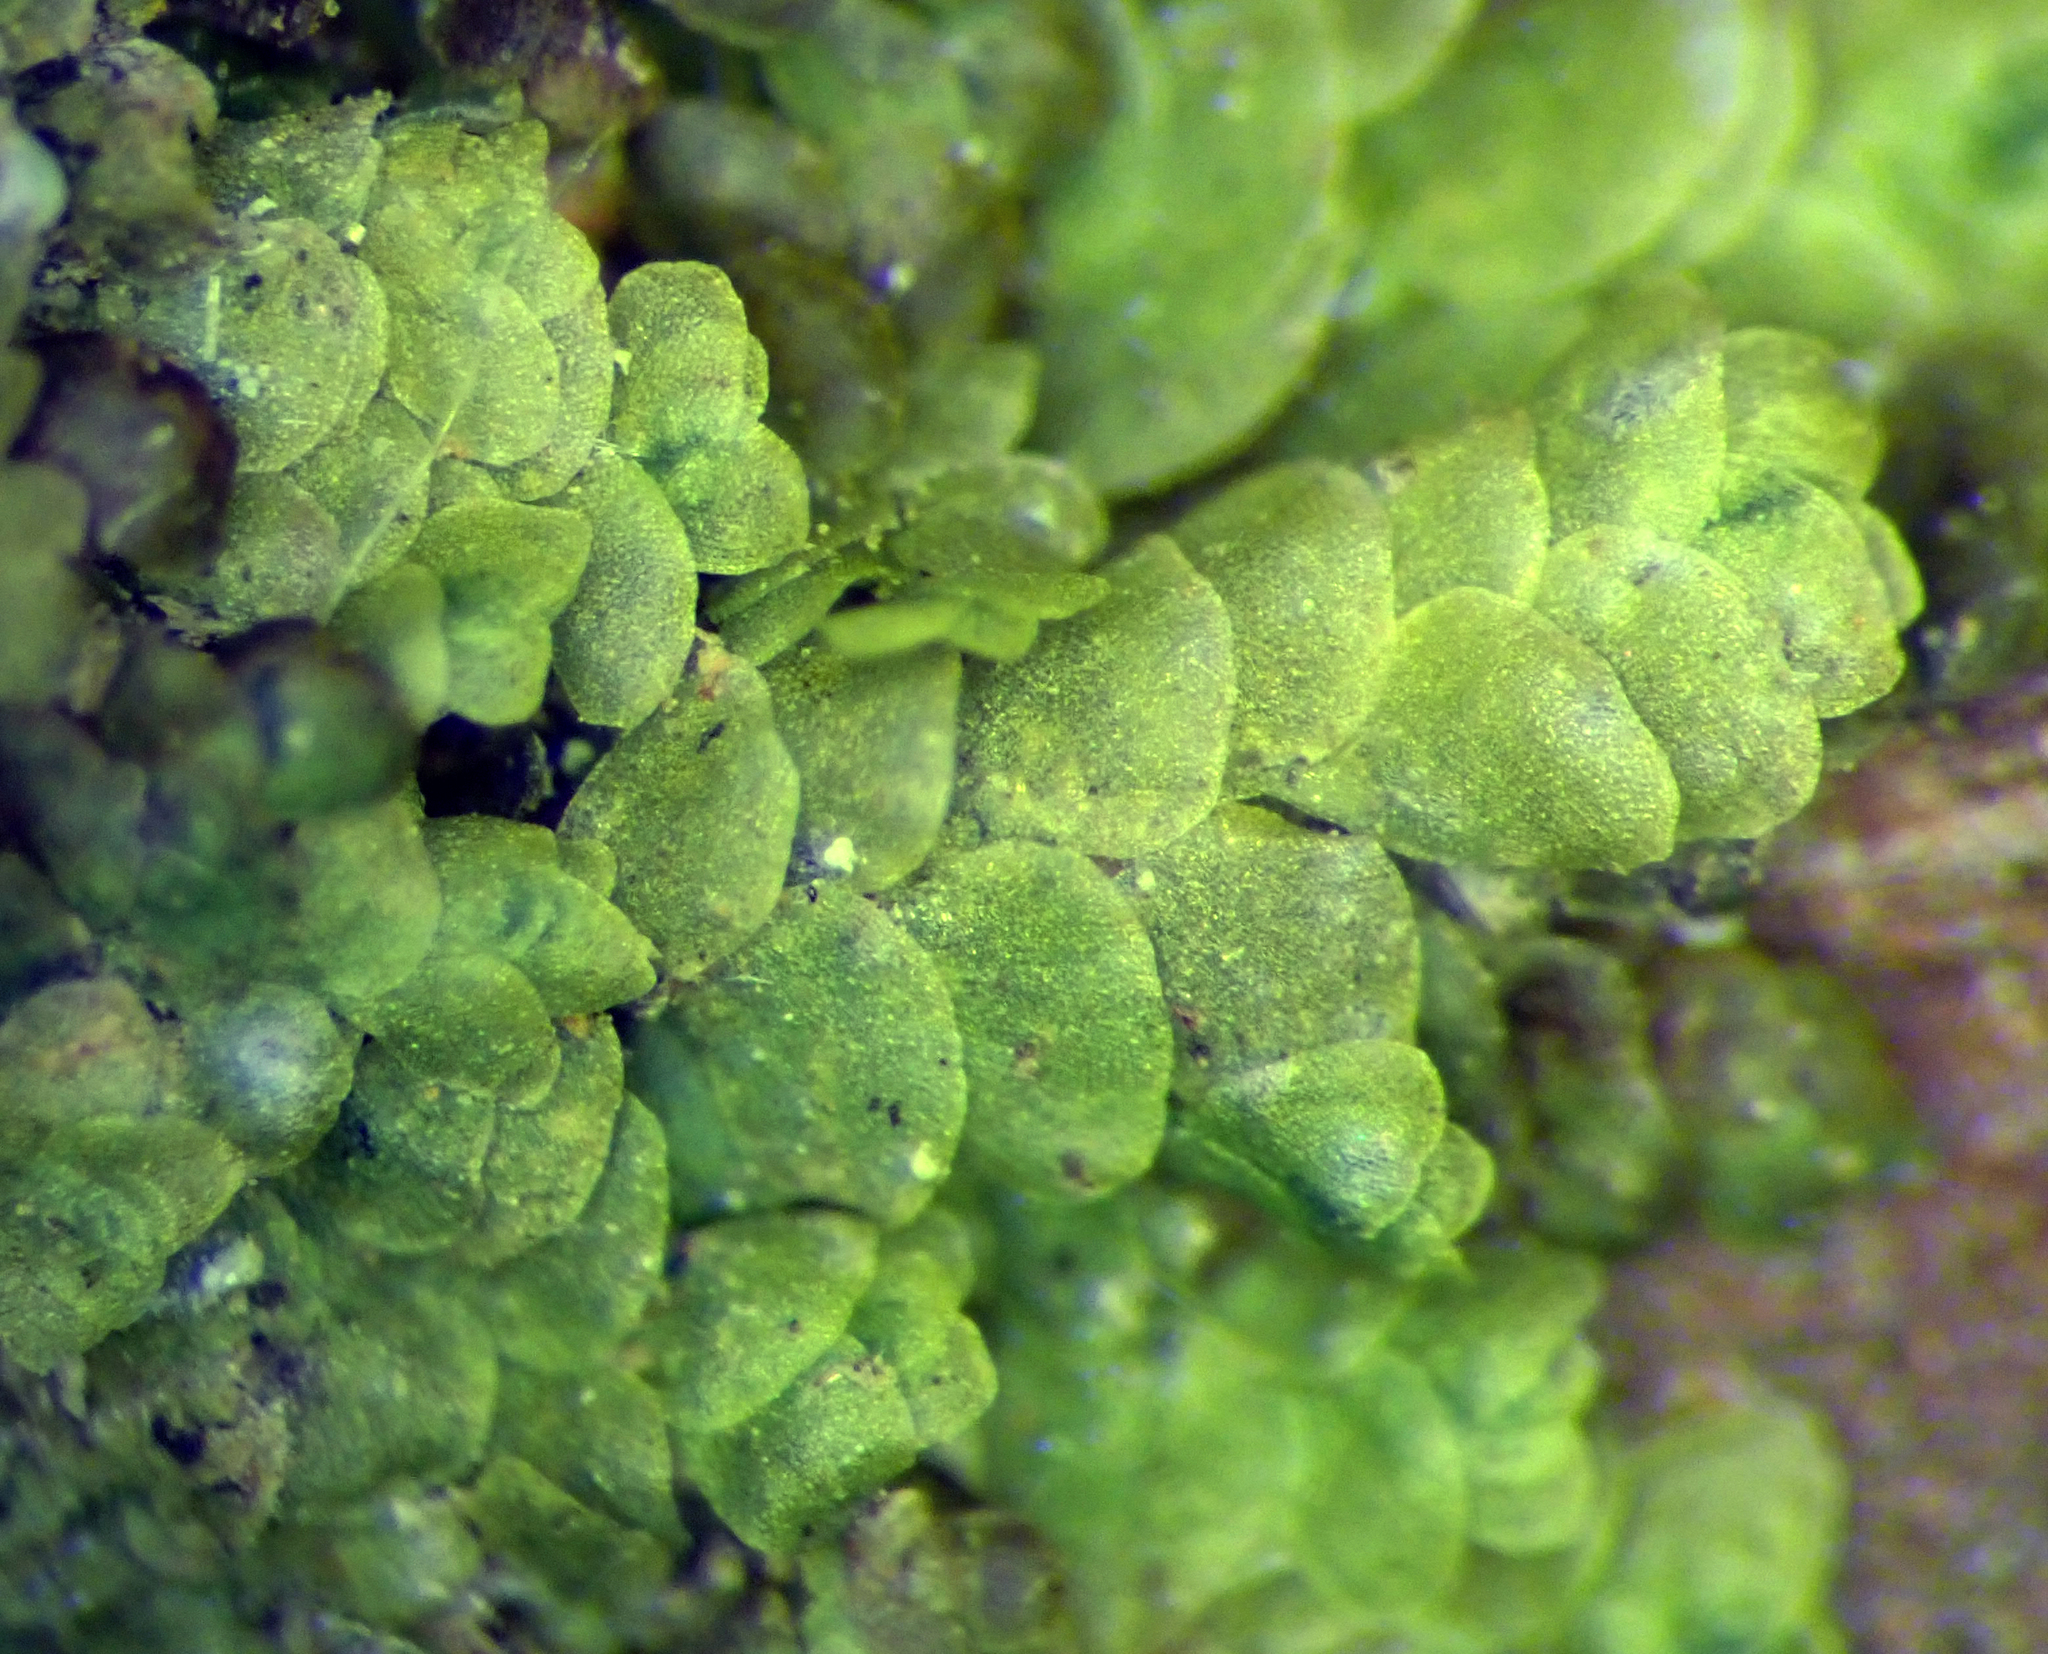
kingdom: Plantae
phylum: Marchantiophyta
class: Jungermanniopsida
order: Porellales
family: Lejeuneaceae
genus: Lejeunea
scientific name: Lejeunea hodgsoniana
